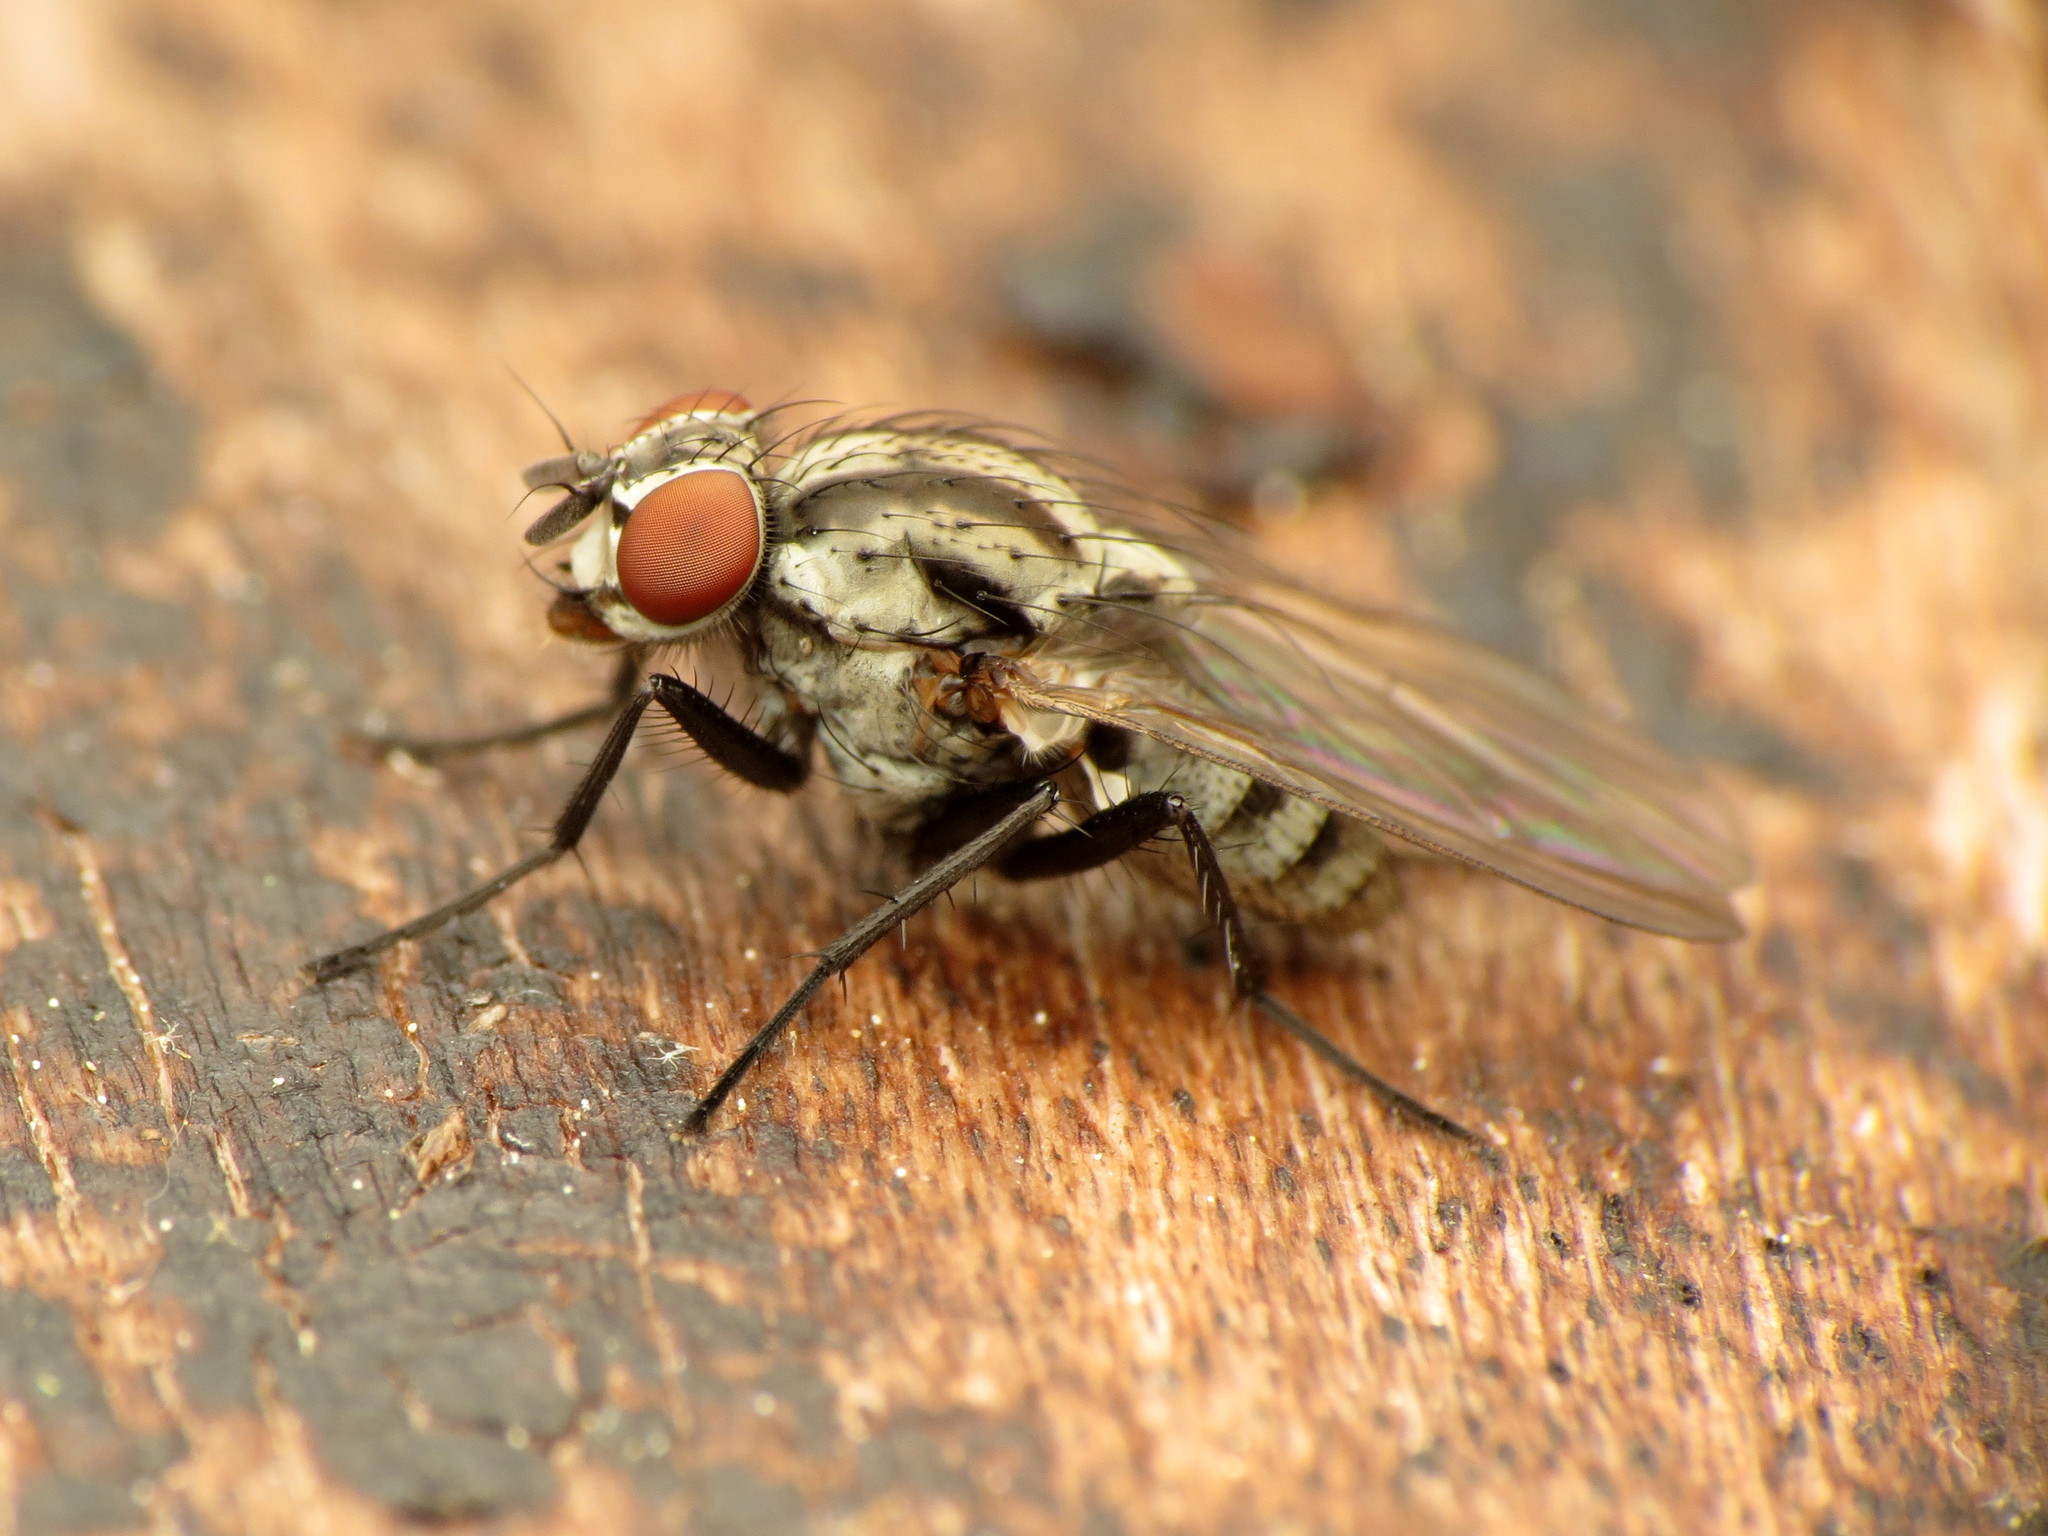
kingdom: Animalia
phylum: Arthropoda
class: Insecta
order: Diptera
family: Anthomyiidae
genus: Anthomyia
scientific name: Anthomyia oculifera
